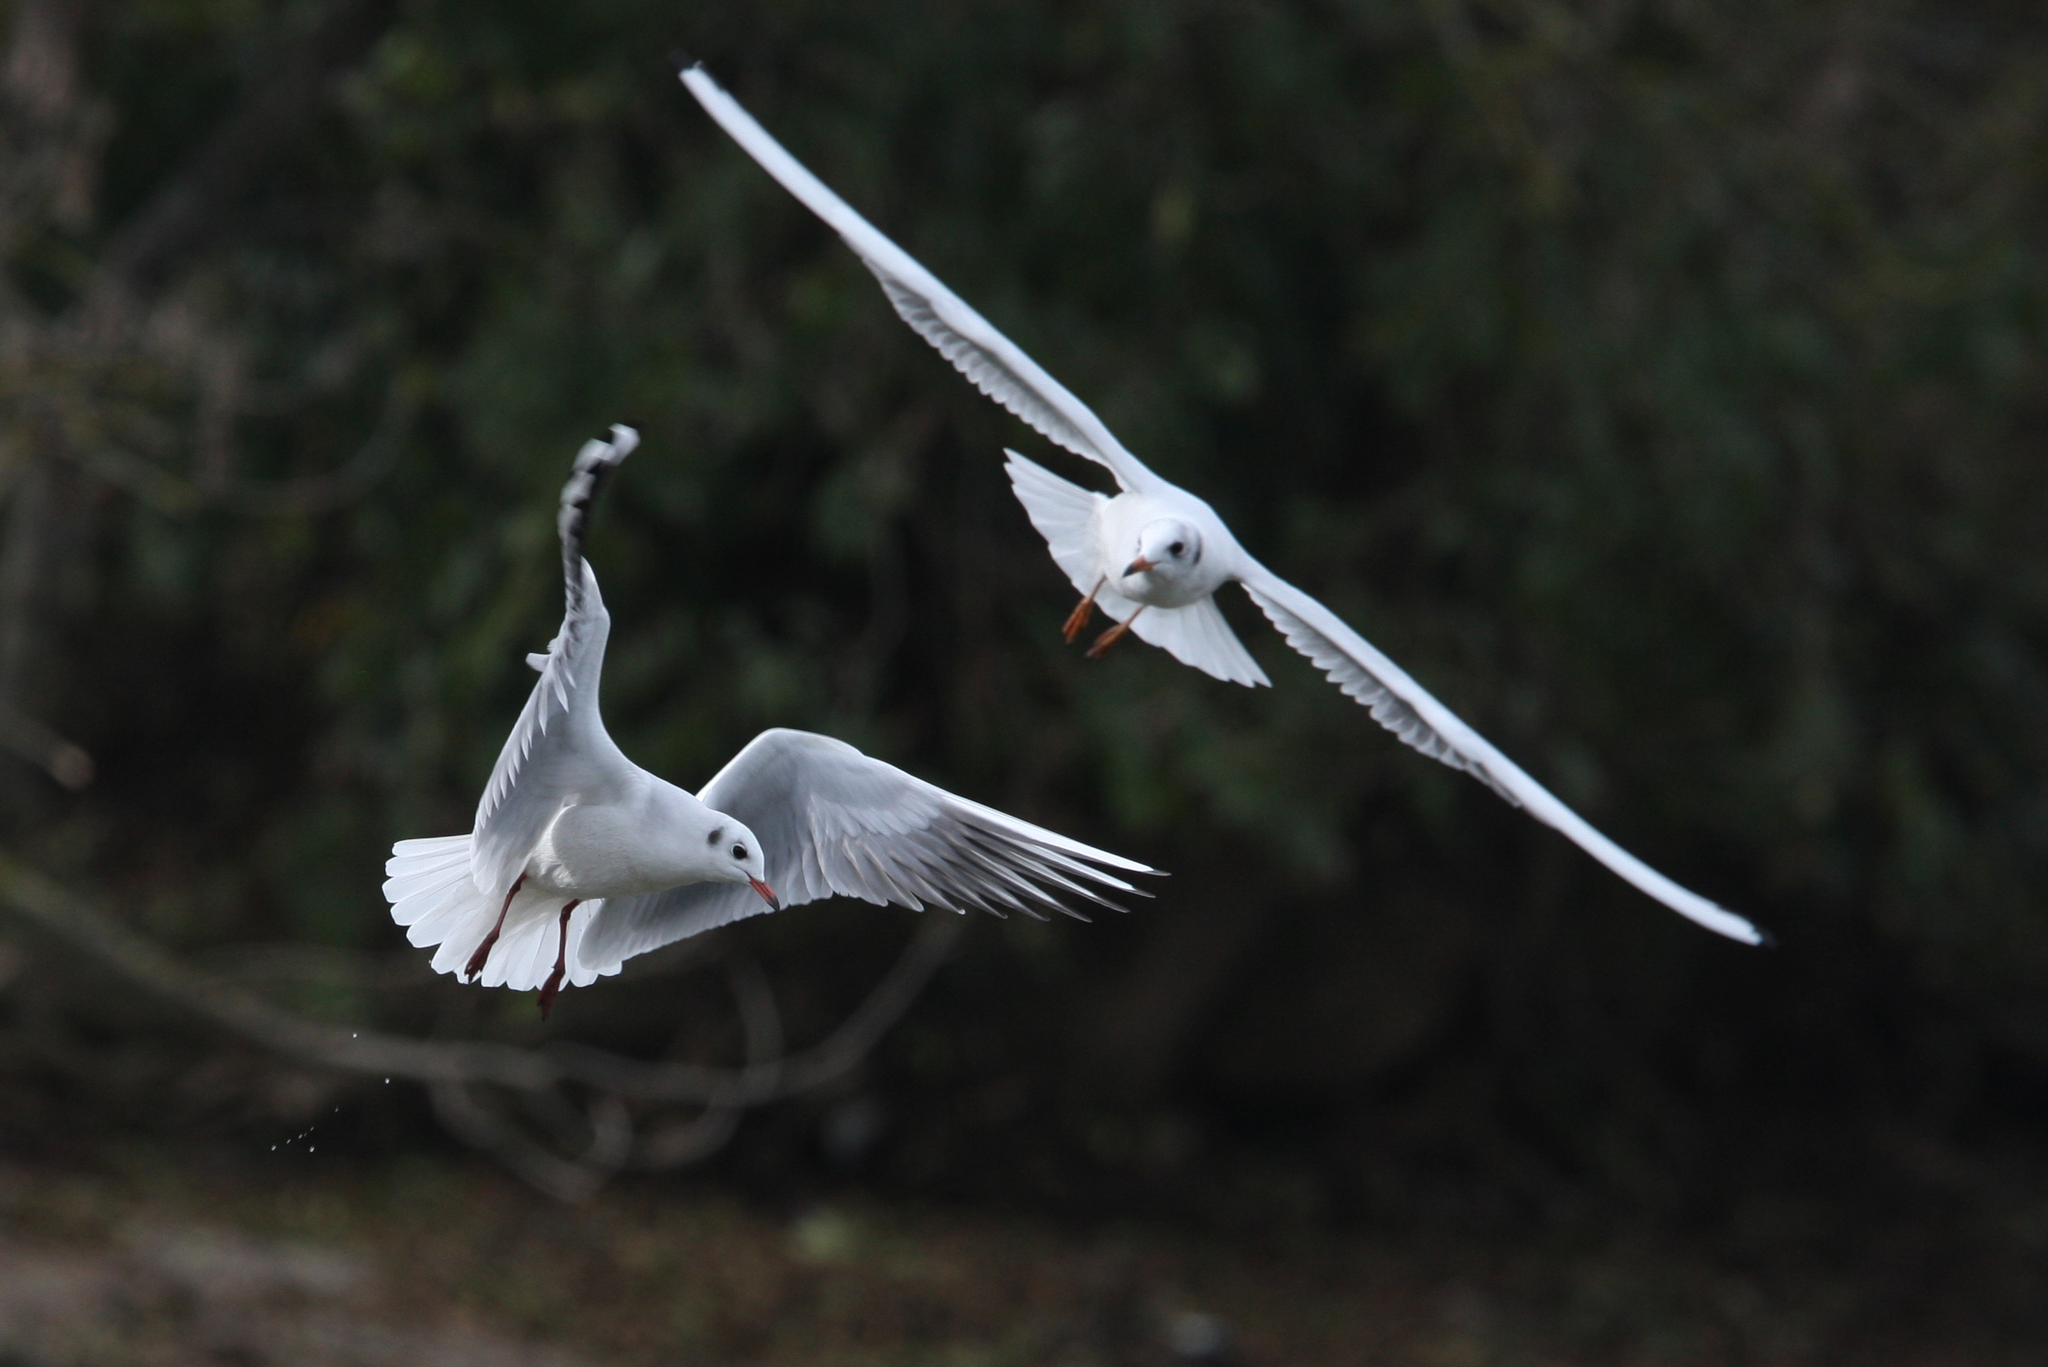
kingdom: Animalia
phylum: Chordata
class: Aves
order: Charadriiformes
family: Laridae
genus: Chroicocephalus
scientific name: Chroicocephalus ridibundus
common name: Black-headed gull
